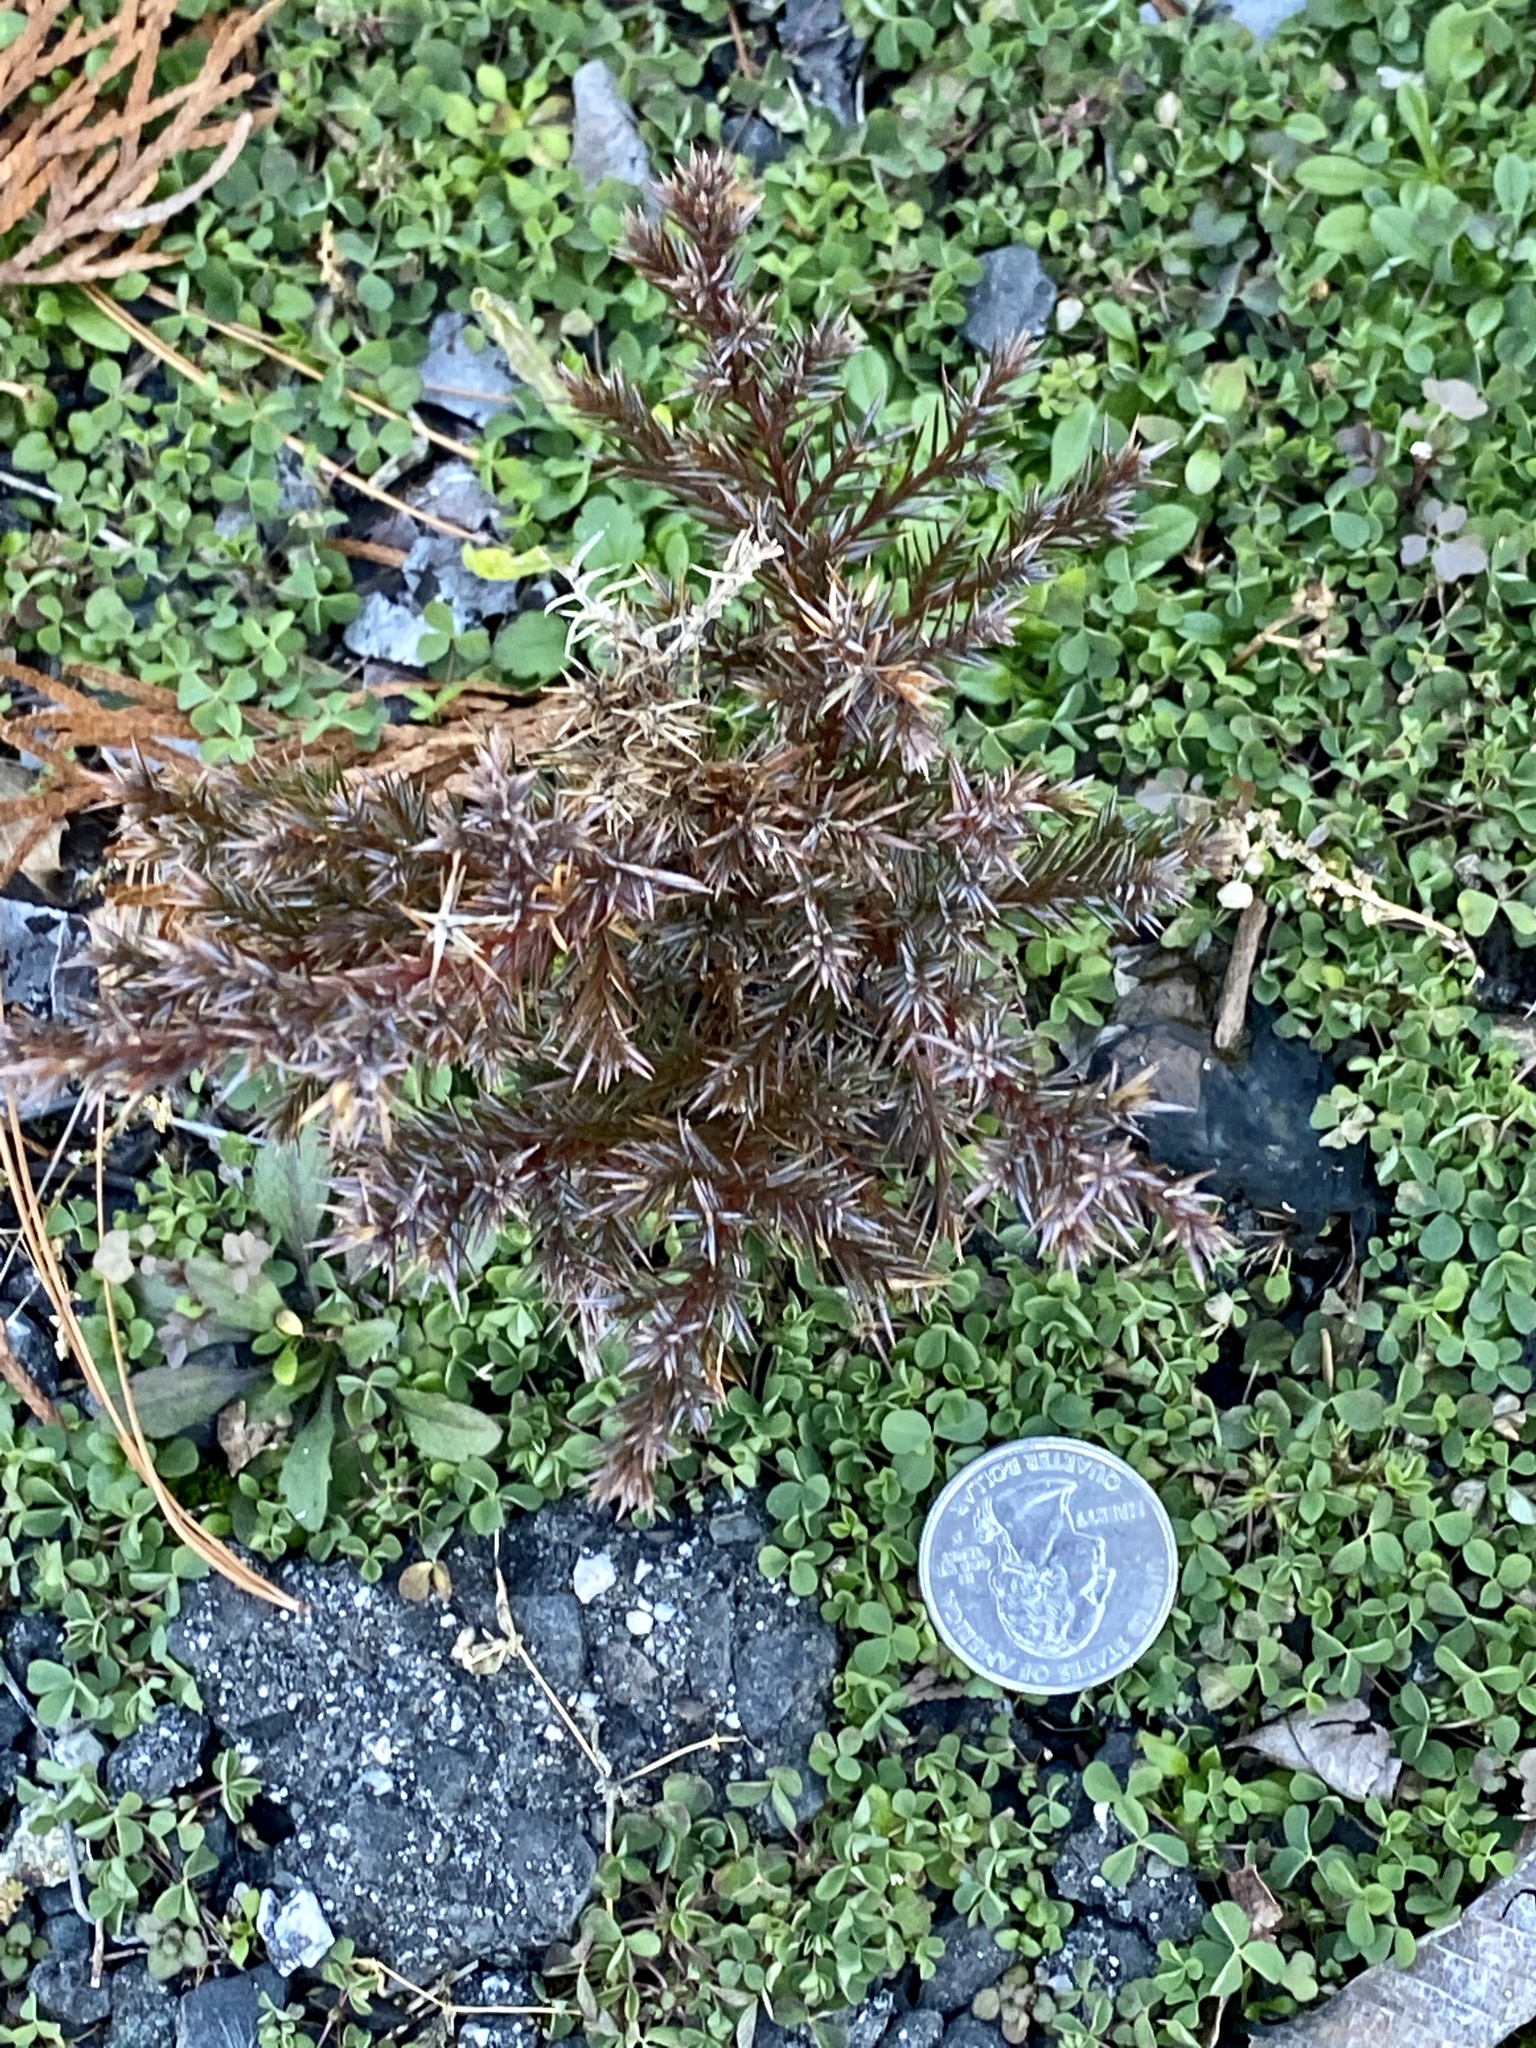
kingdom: Plantae
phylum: Tracheophyta
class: Pinopsida
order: Pinales
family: Cupressaceae
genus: Juniperus
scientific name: Juniperus virginiana
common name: Red juniper
